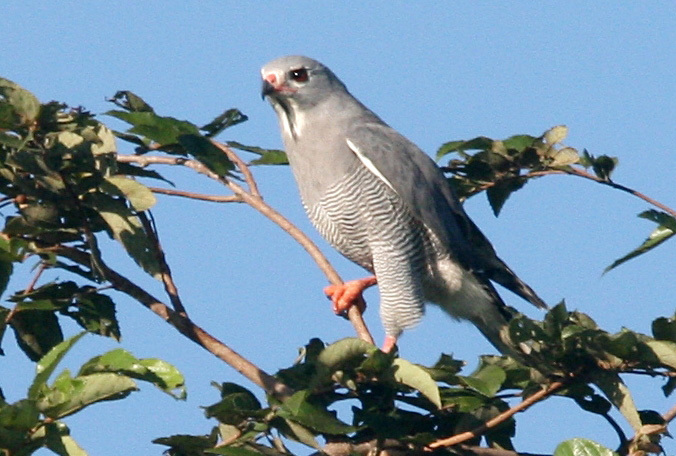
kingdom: Animalia
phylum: Chordata
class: Aves
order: Accipitriformes
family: Accipitridae
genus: Kaupifalco
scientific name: Kaupifalco monogrammicus
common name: Lizard buzzard
